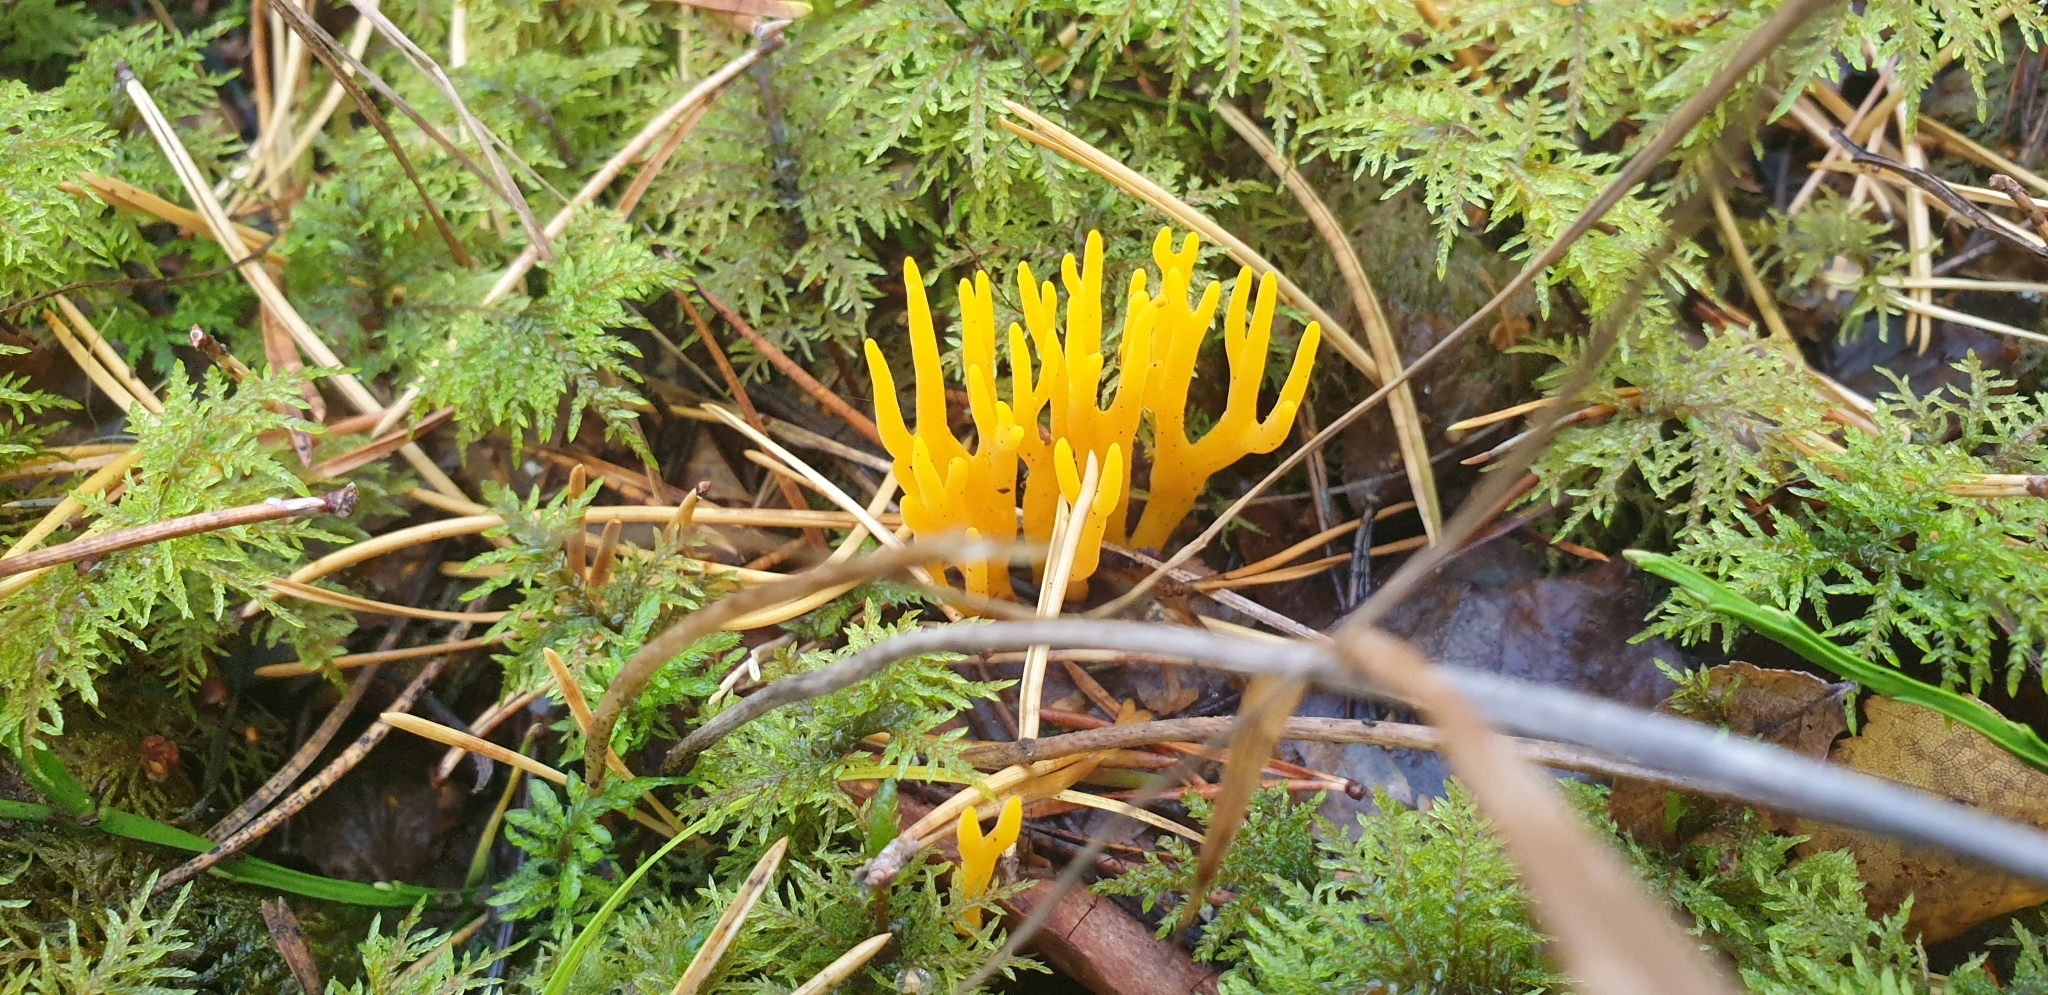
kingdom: Fungi
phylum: Basidiomycota
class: Dacrymycetes
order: Dacrymycetales
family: Dacrymycetaceae
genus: Calocera
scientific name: Calocera viscosa
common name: Yellow stagshorn
